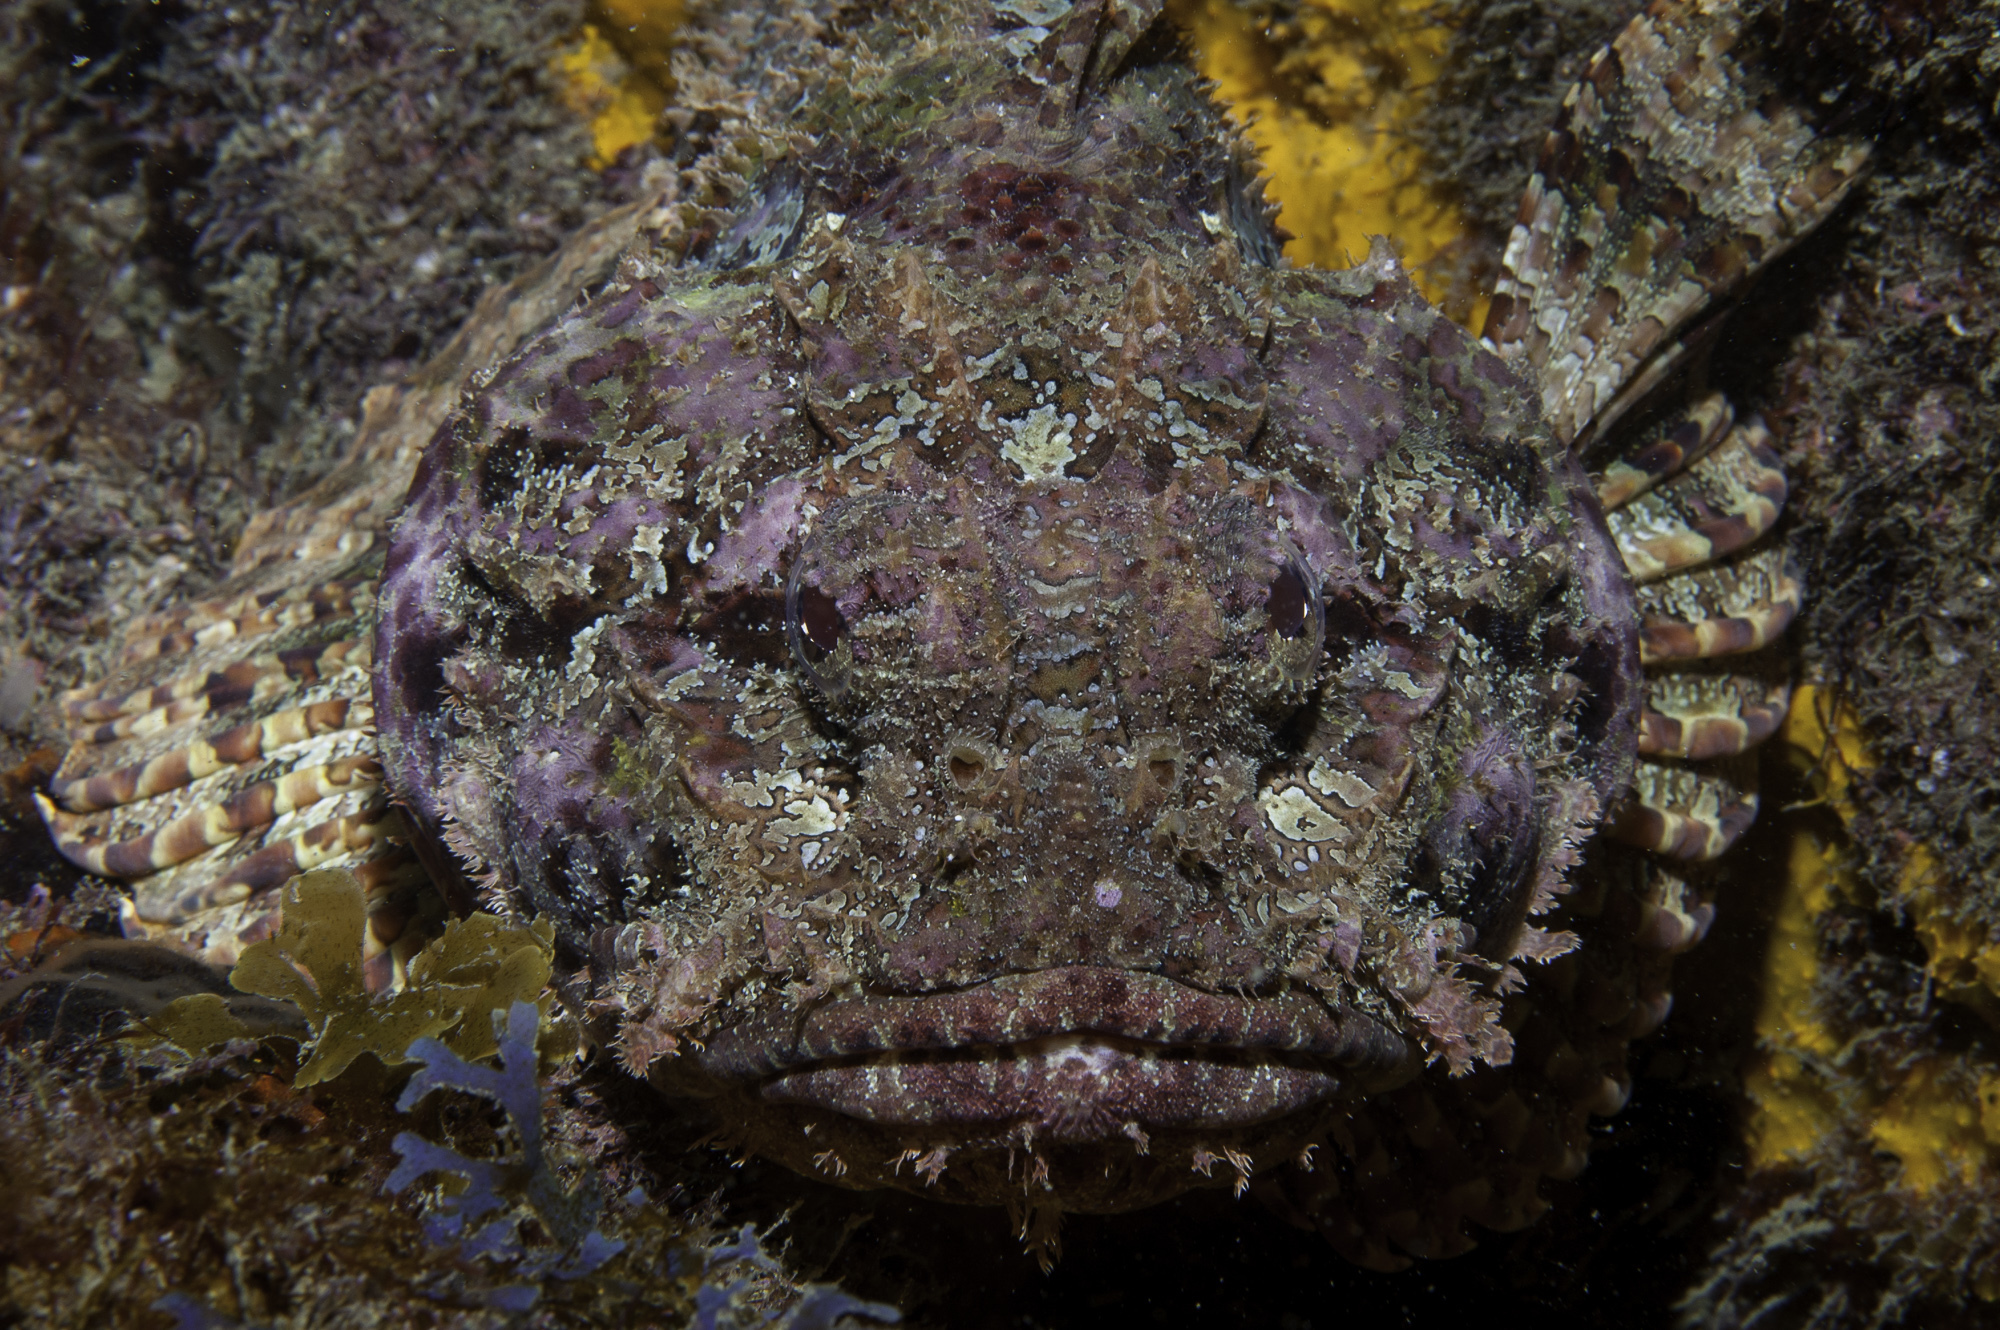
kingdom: Animalia
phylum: Chordata
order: Scorpaeniformes
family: Scorpaenidae
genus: Scorpaena
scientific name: Scorpaena plumieri
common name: Spotted scorpionfish
